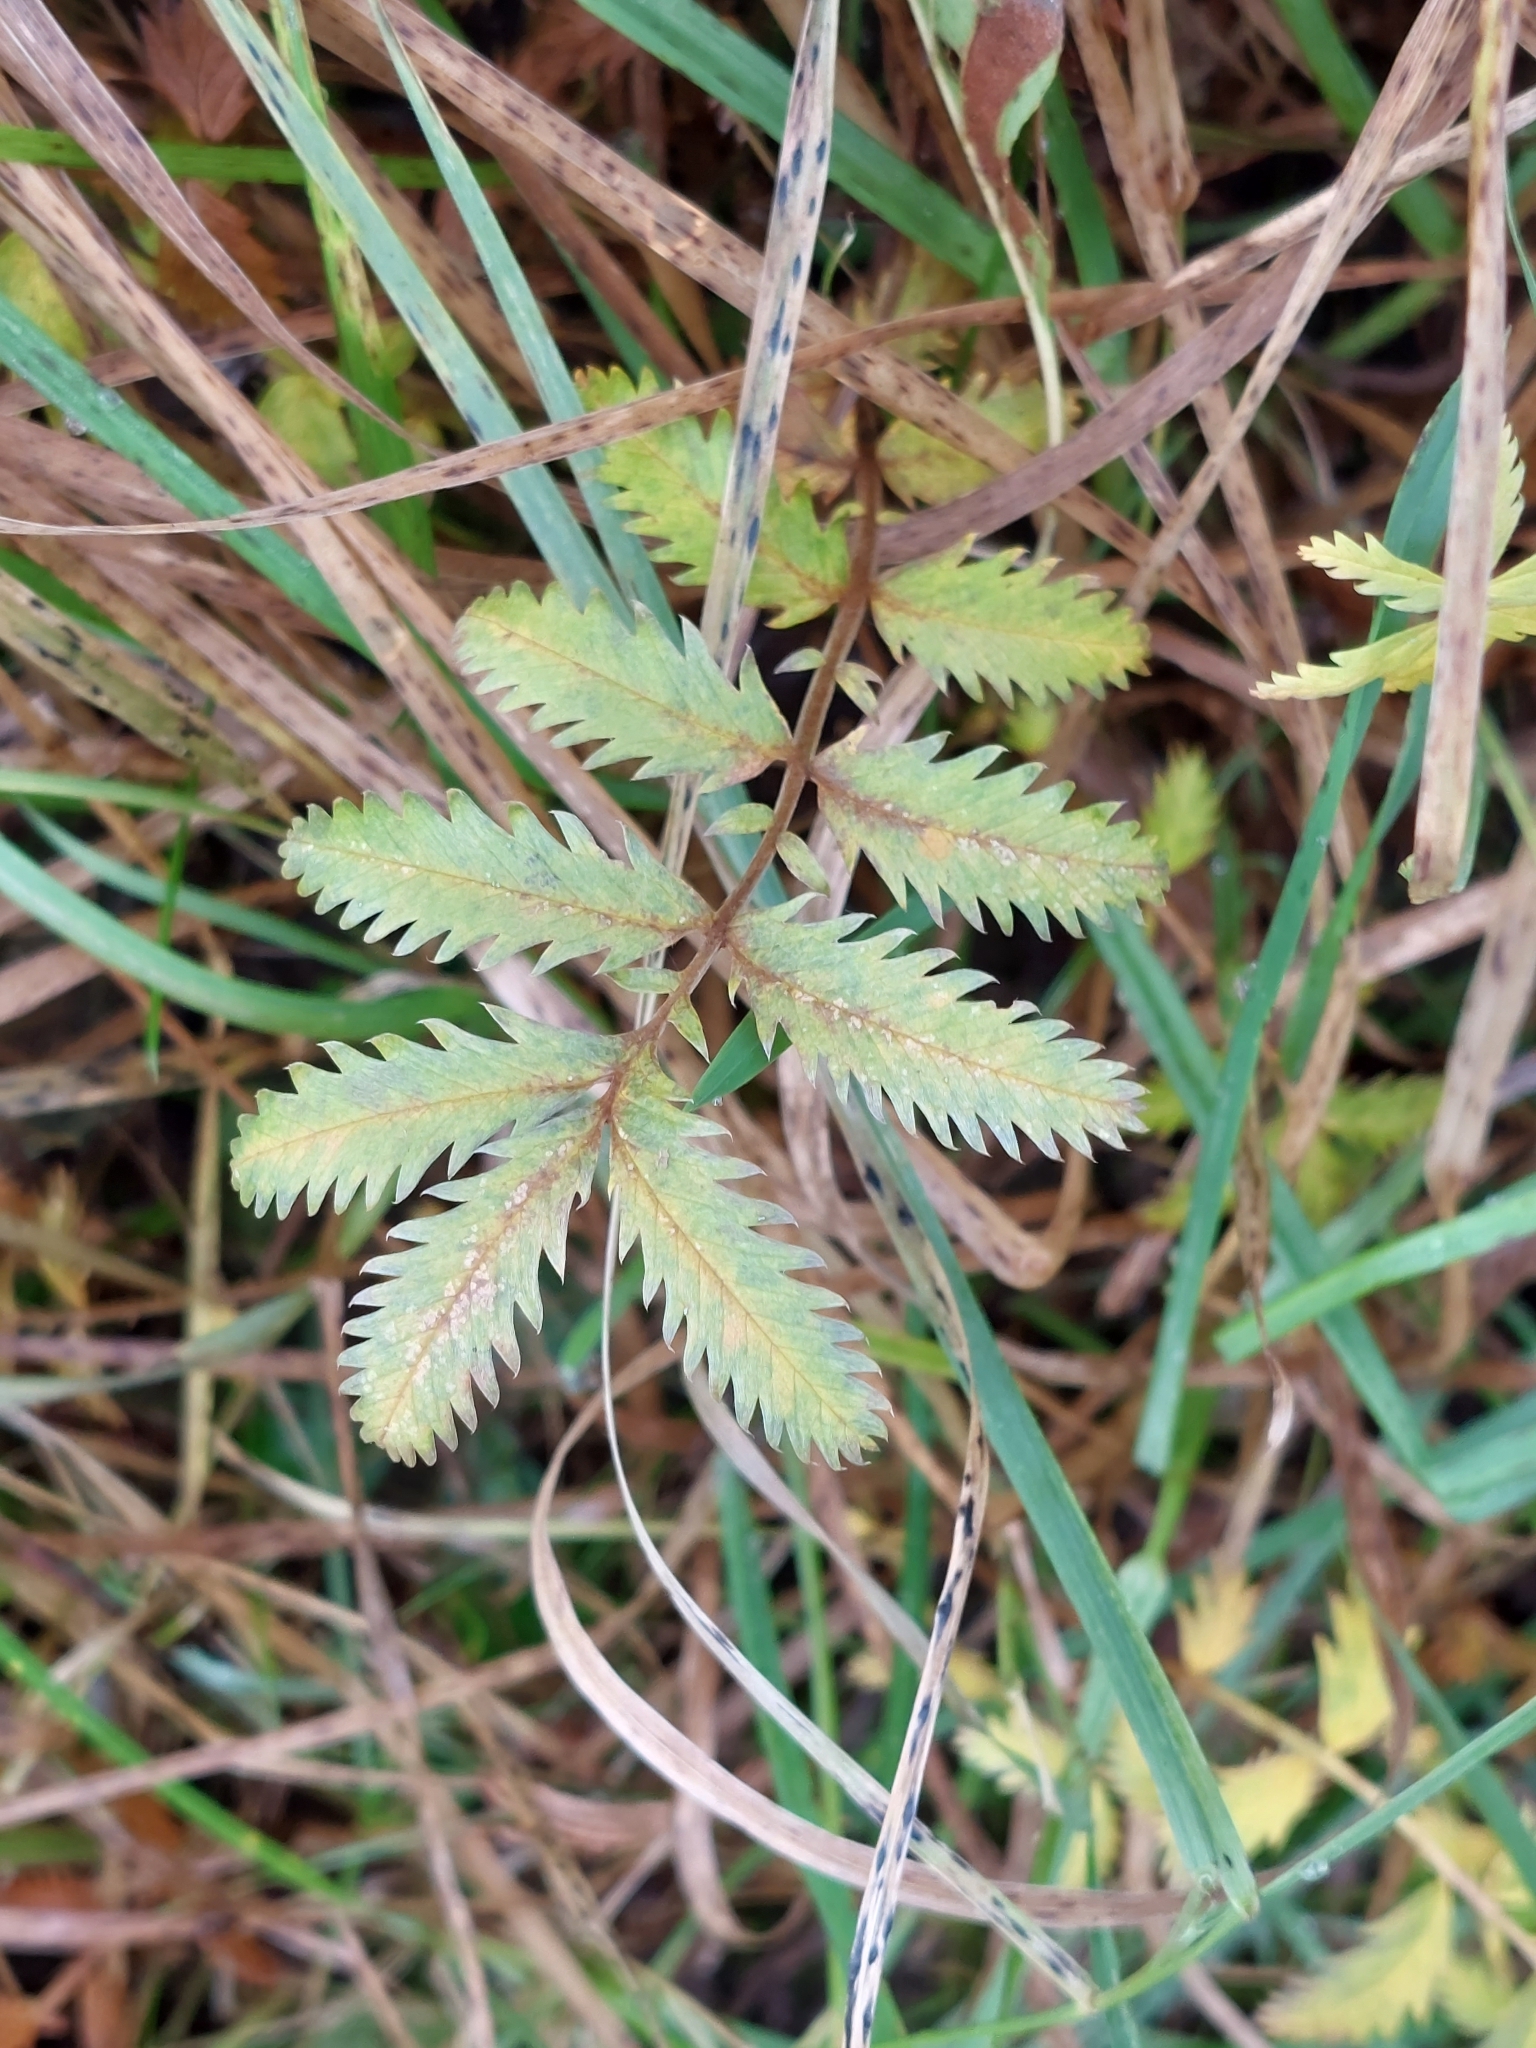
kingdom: Plantae
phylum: Tracheophyta
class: Magnoliopsida
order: Rosales
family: Rosaceae
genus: Argentina
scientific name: Argentina anserina
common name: Common silverweed
